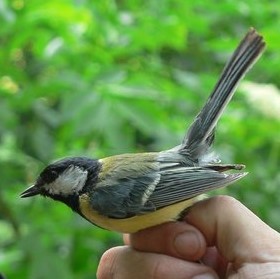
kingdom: Animalia
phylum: Chordata
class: Aves
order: Passeriformes
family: Paridae
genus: Parus
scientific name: Parus major
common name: Great tit
